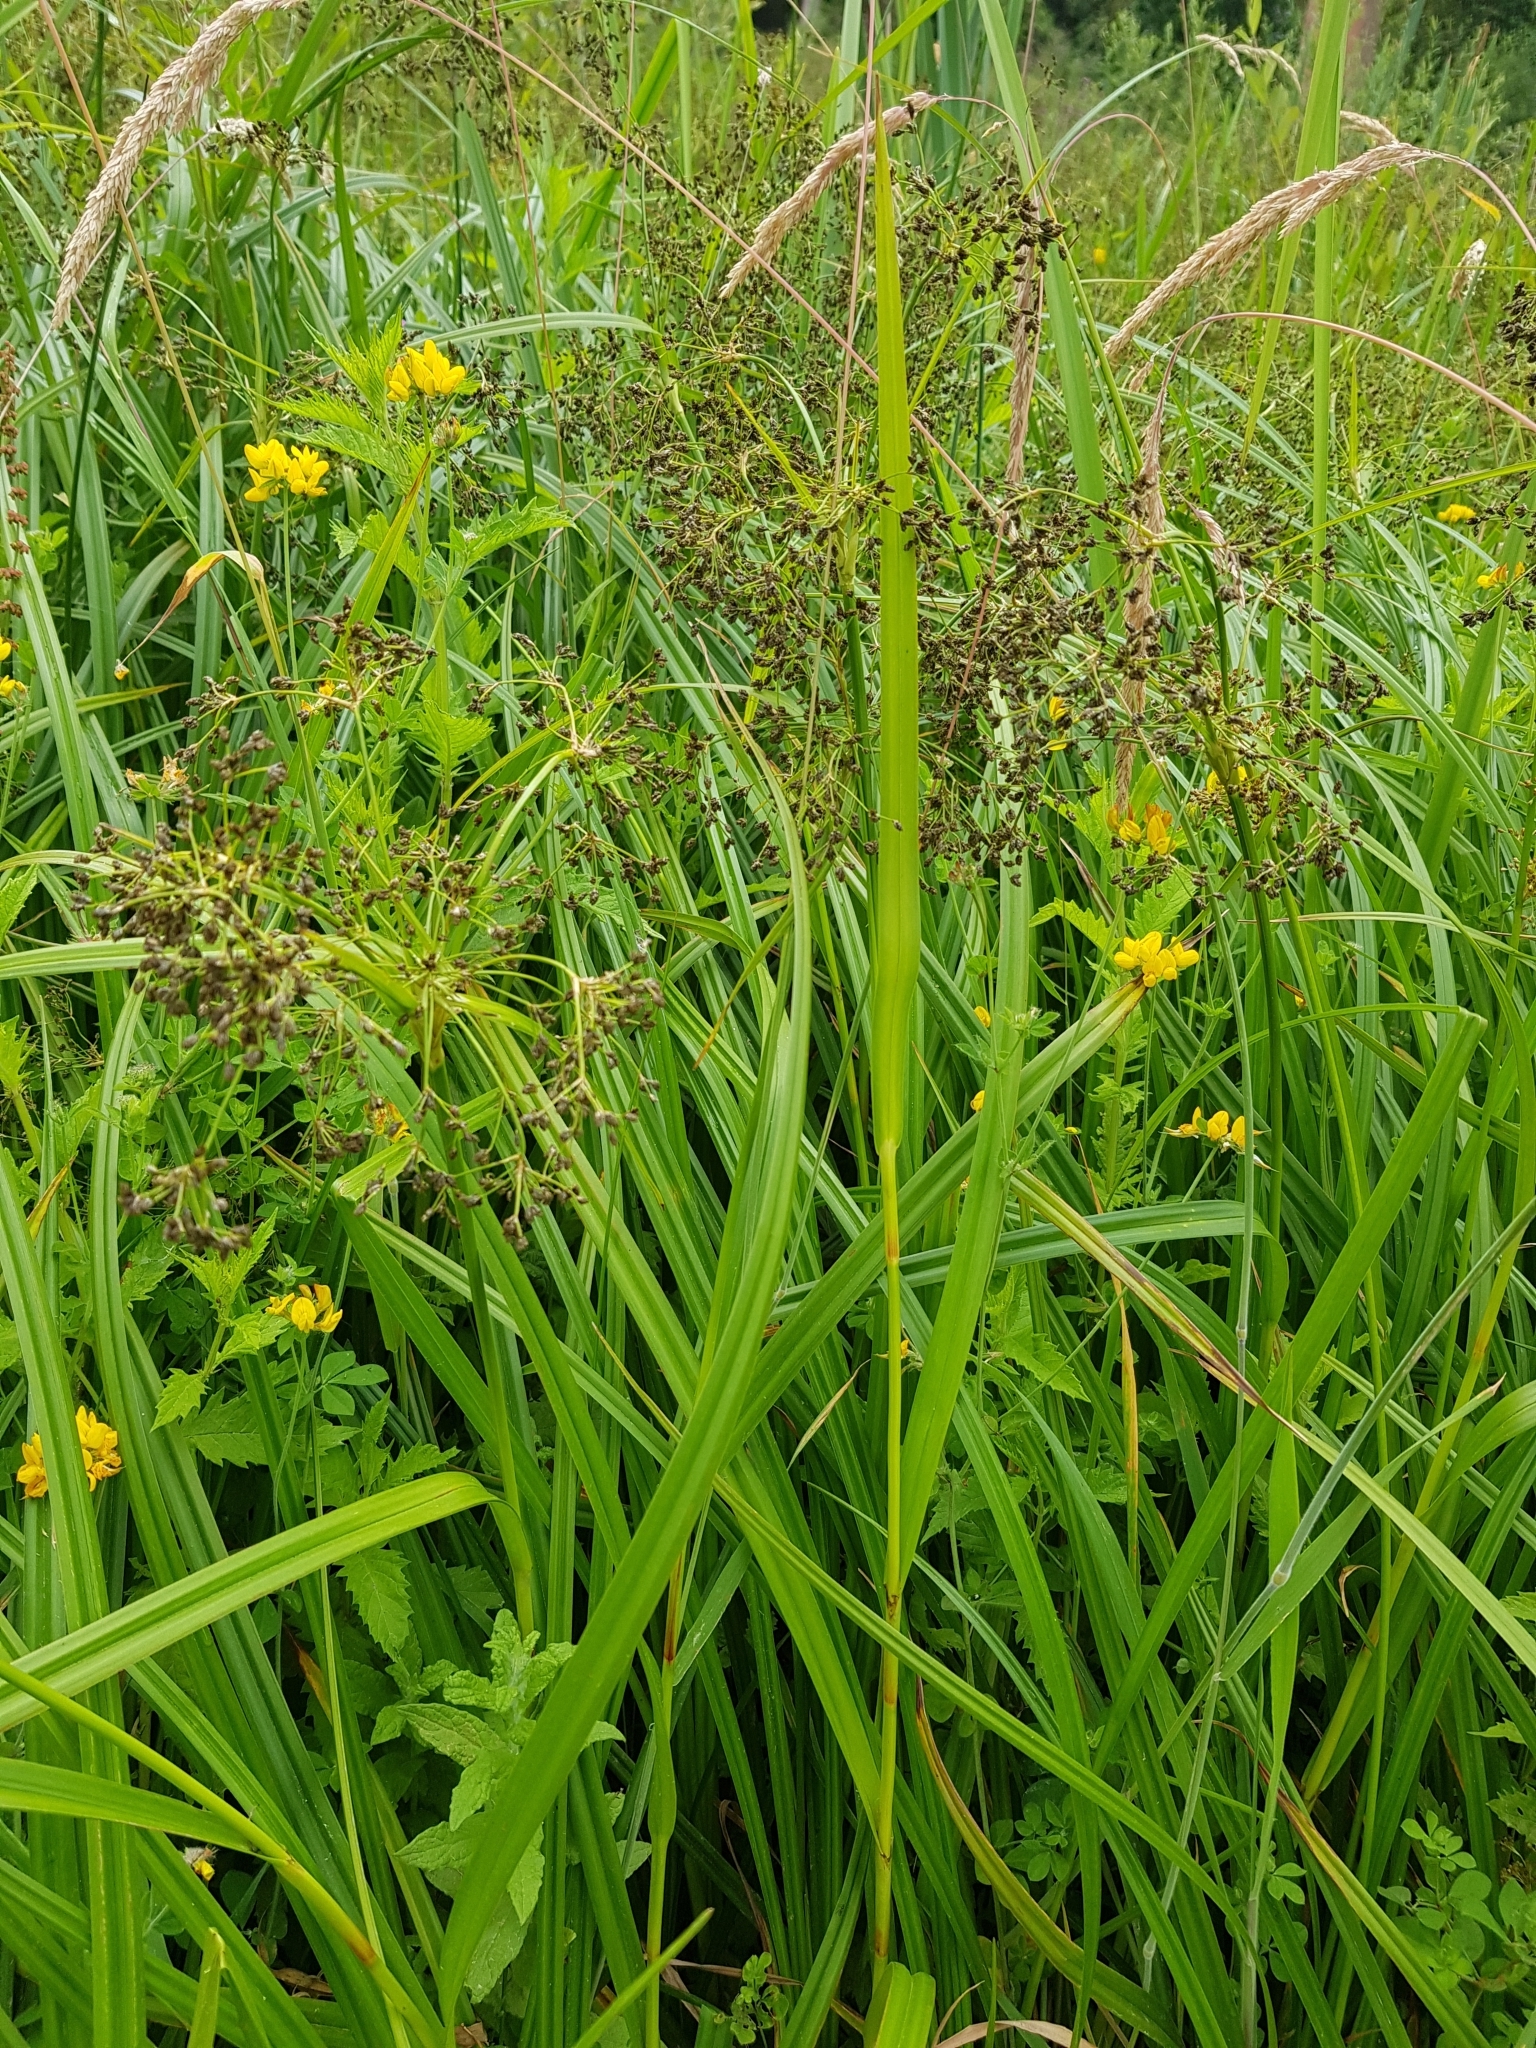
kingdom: Plantae
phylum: Tracheophyta
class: Liliopsida
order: Poales
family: Cyperaceae
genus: Scirpus
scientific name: Scirpus sylvaticus
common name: Wood club-rush
